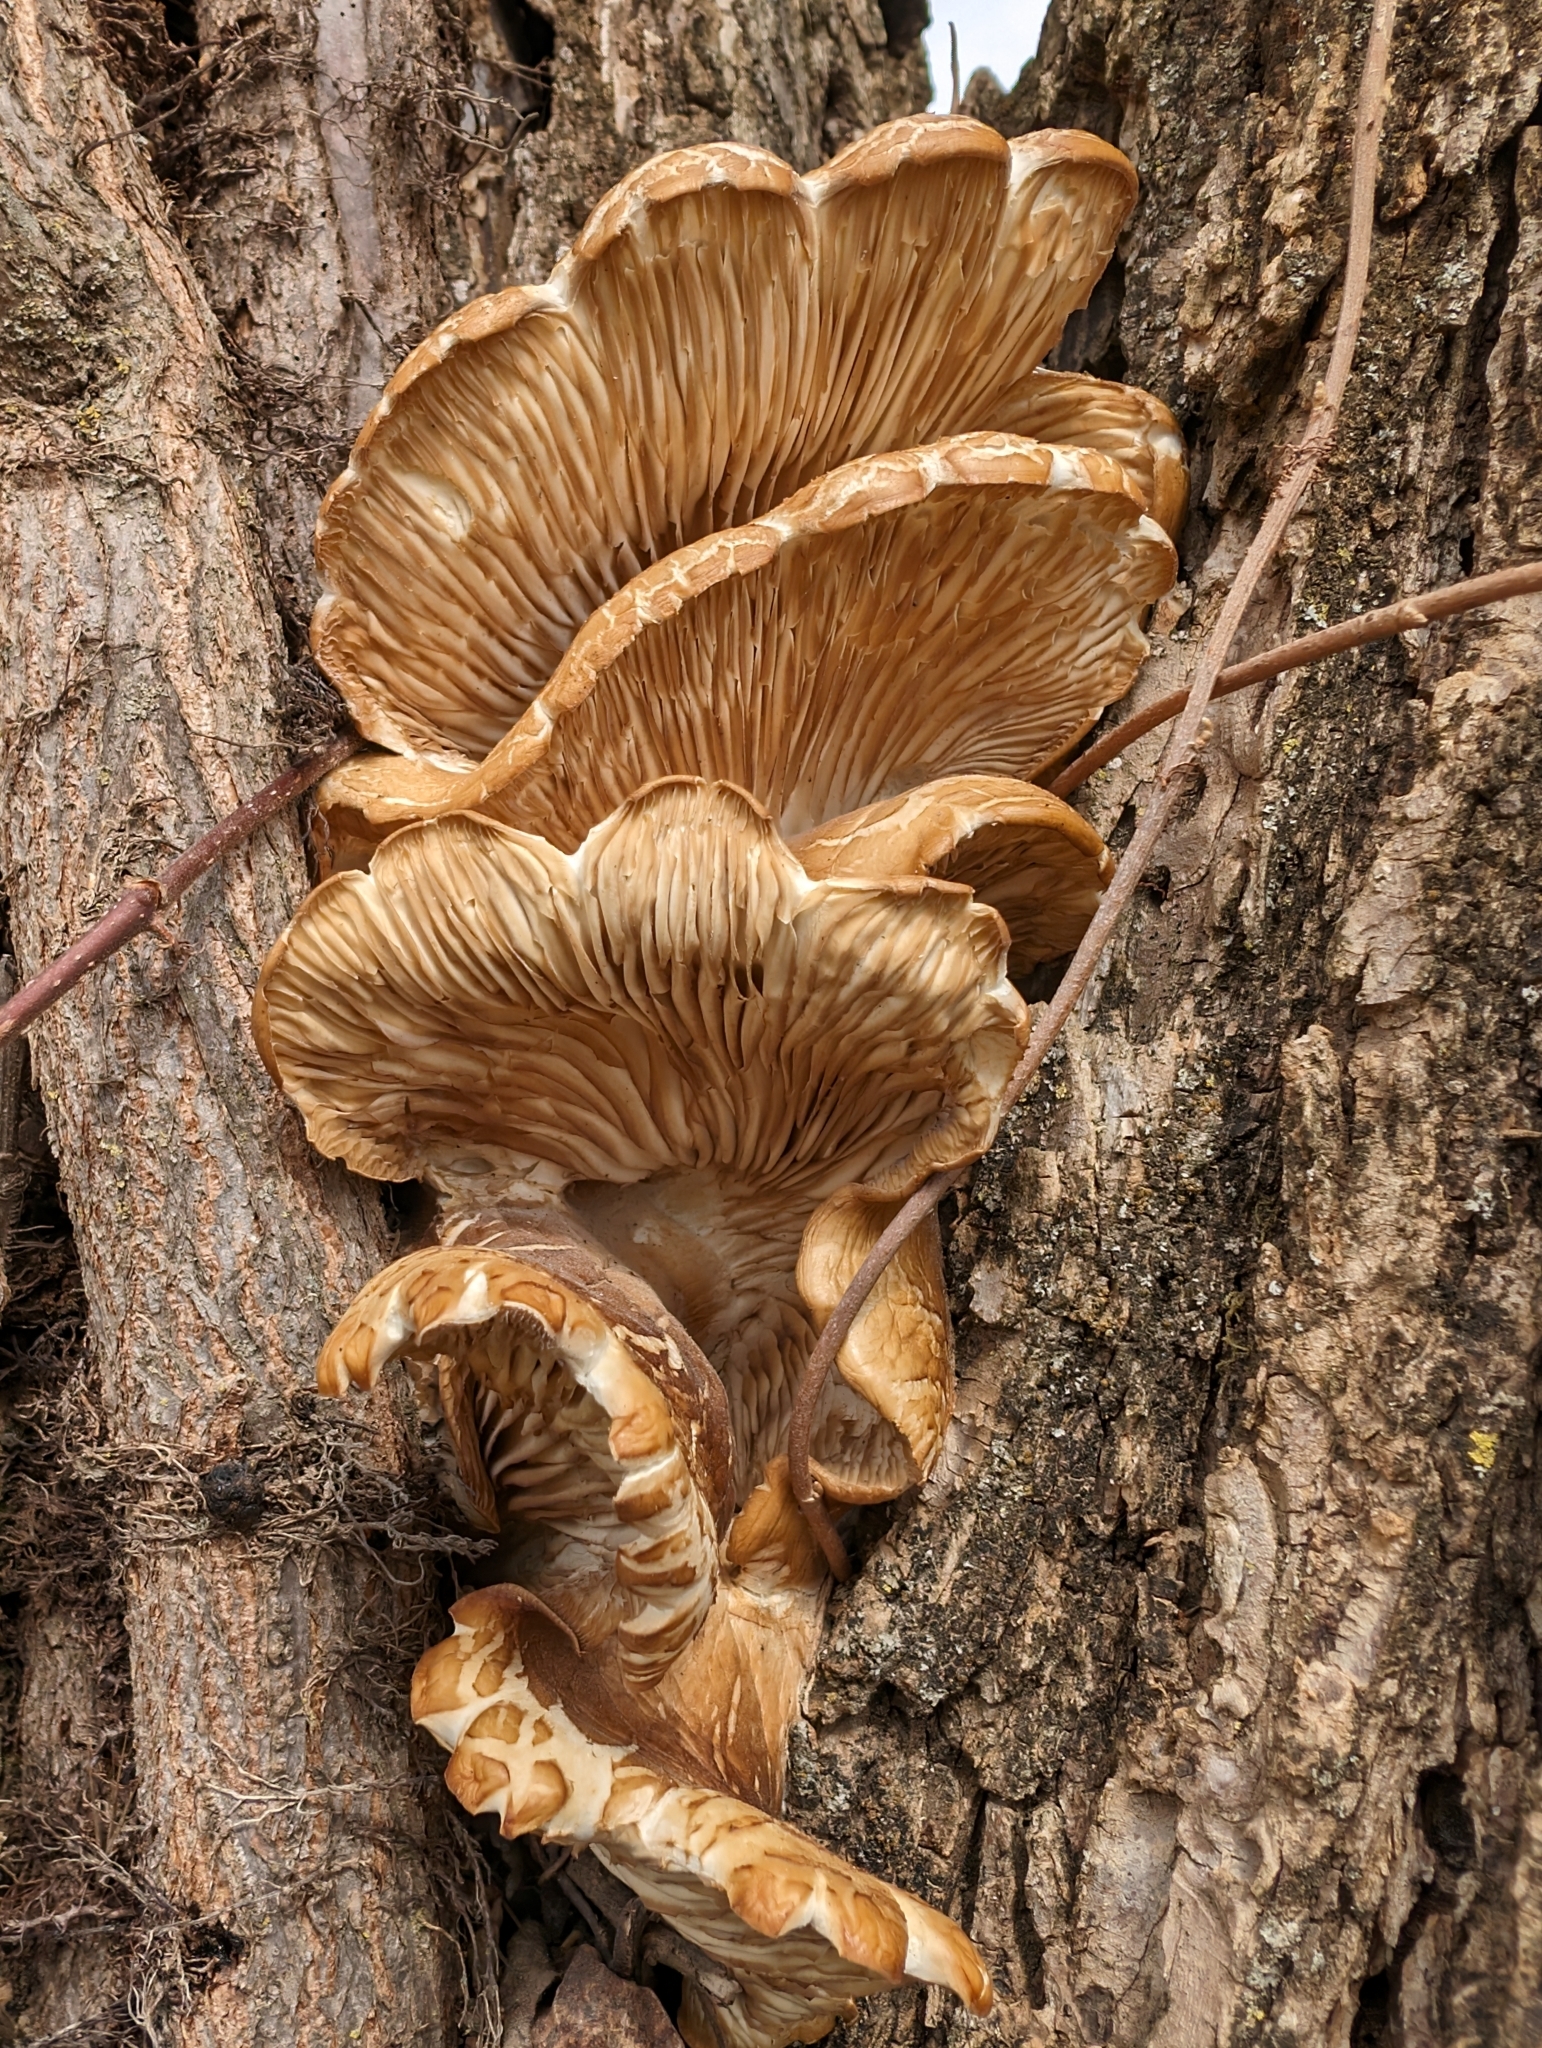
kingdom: Fungi
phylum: Basidiomycota
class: Agaricomycetes
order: Agaricales
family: Pleurotaceae
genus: Pleurotus
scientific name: Pleurotus ostreatus
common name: Oyster mushroom
